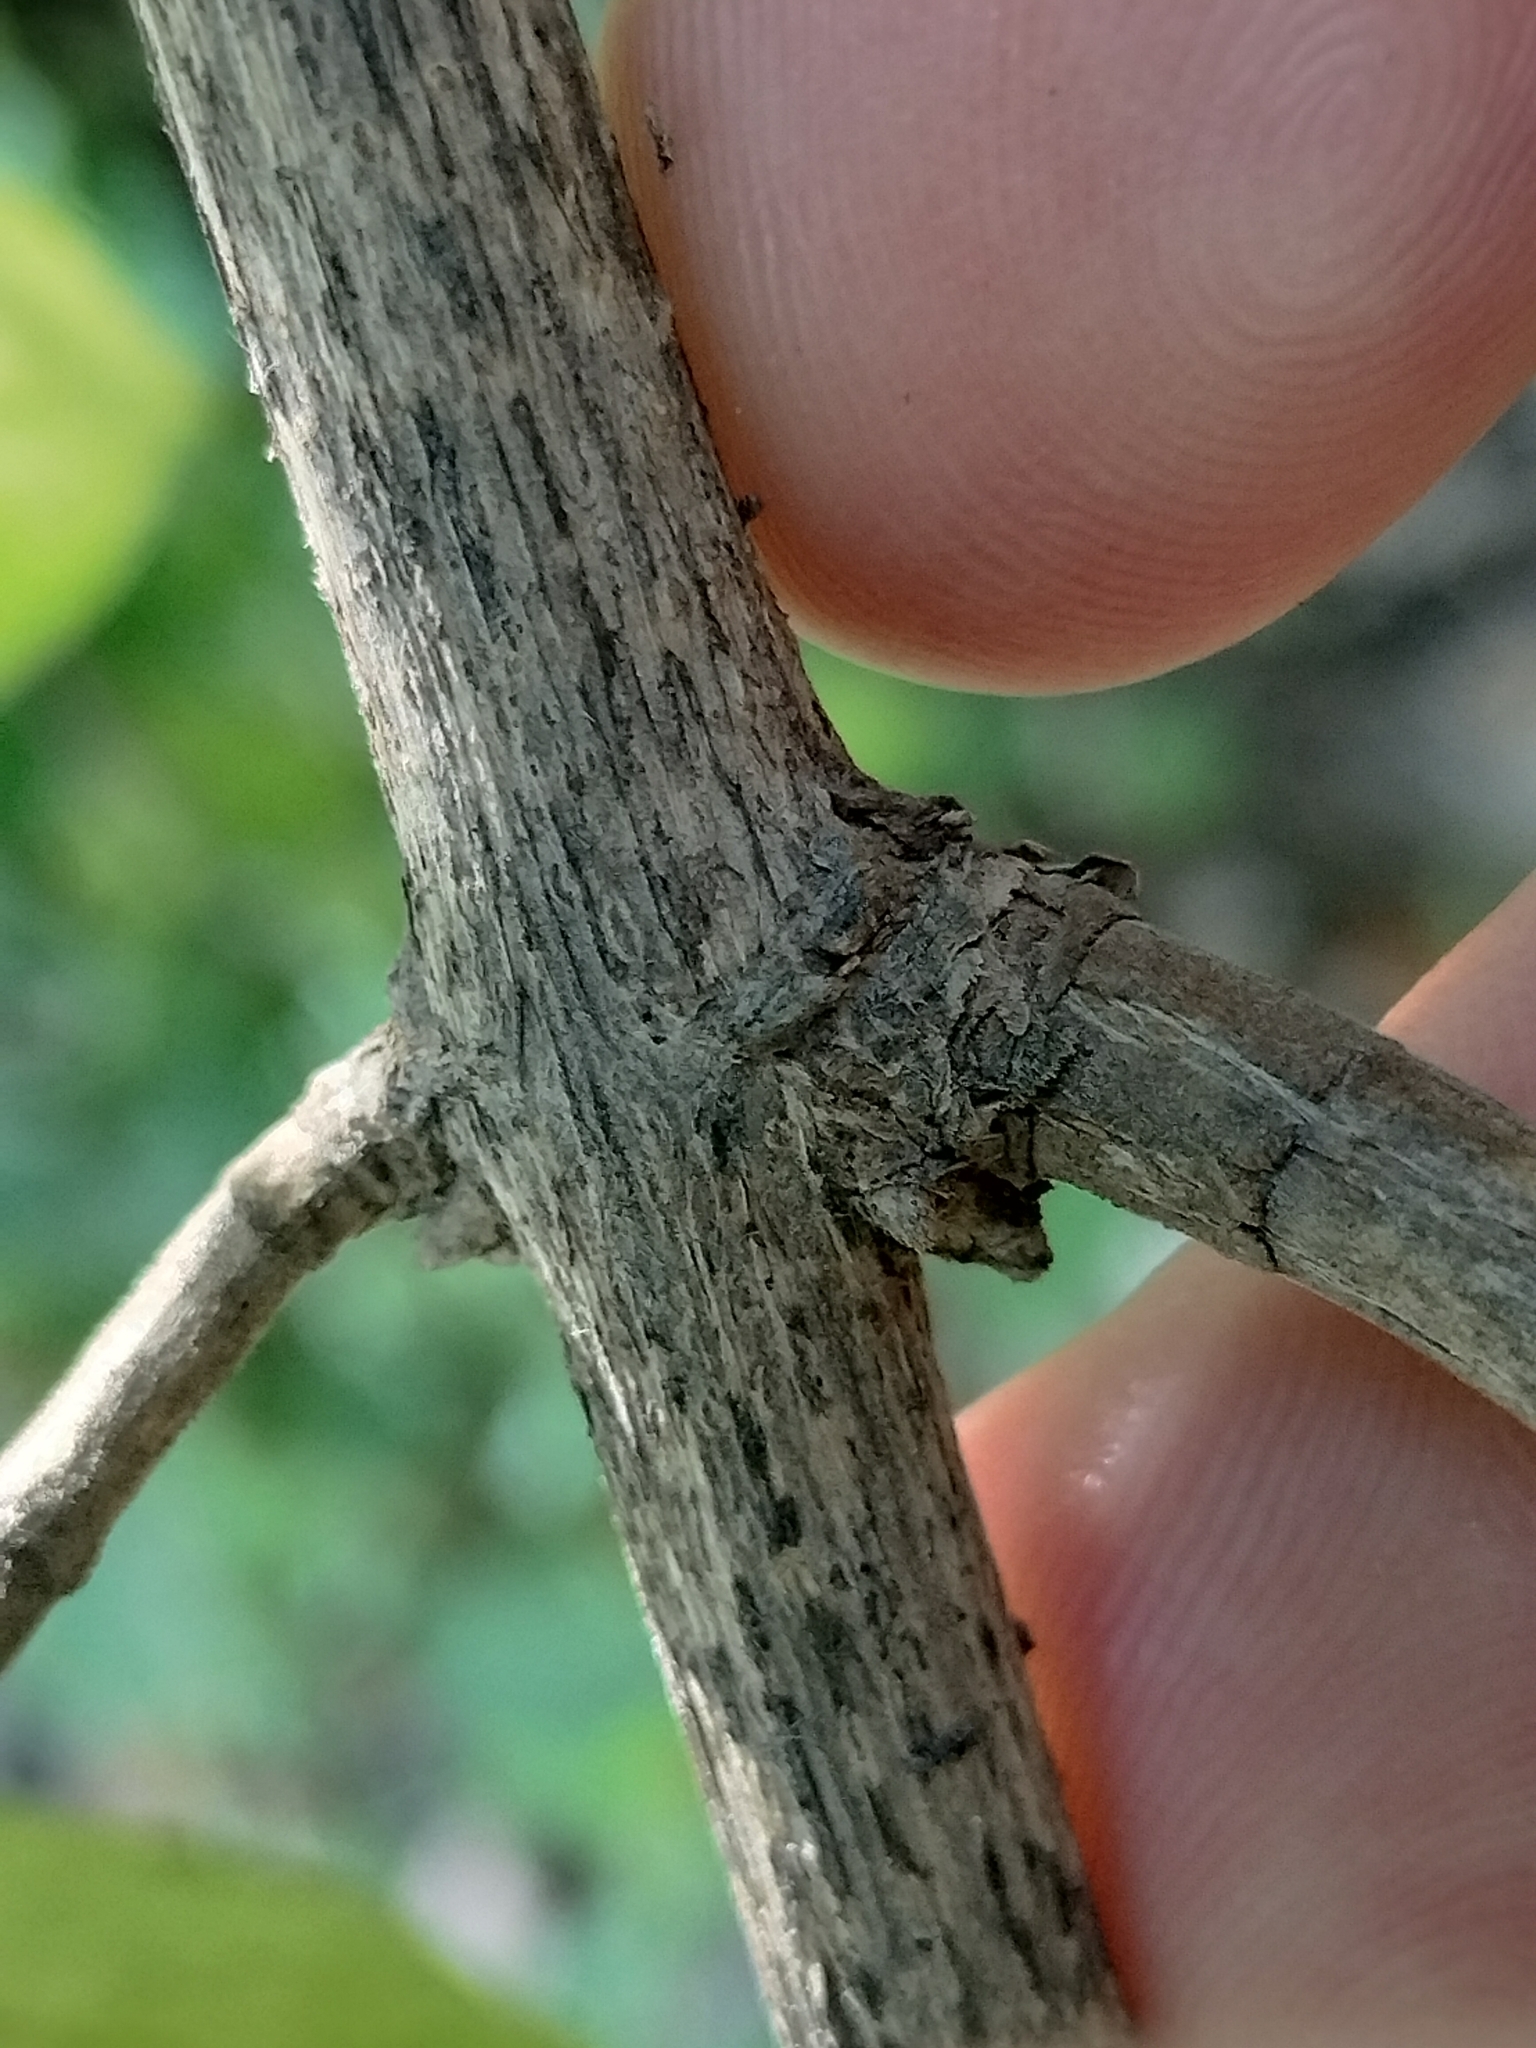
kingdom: Plantae
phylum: Tracheophyta
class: Magnoliopsida
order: Dipsacales
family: Caprifoliaceae
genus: Lonicera
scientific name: Lonicera maackii
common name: Amur honeysuckle
